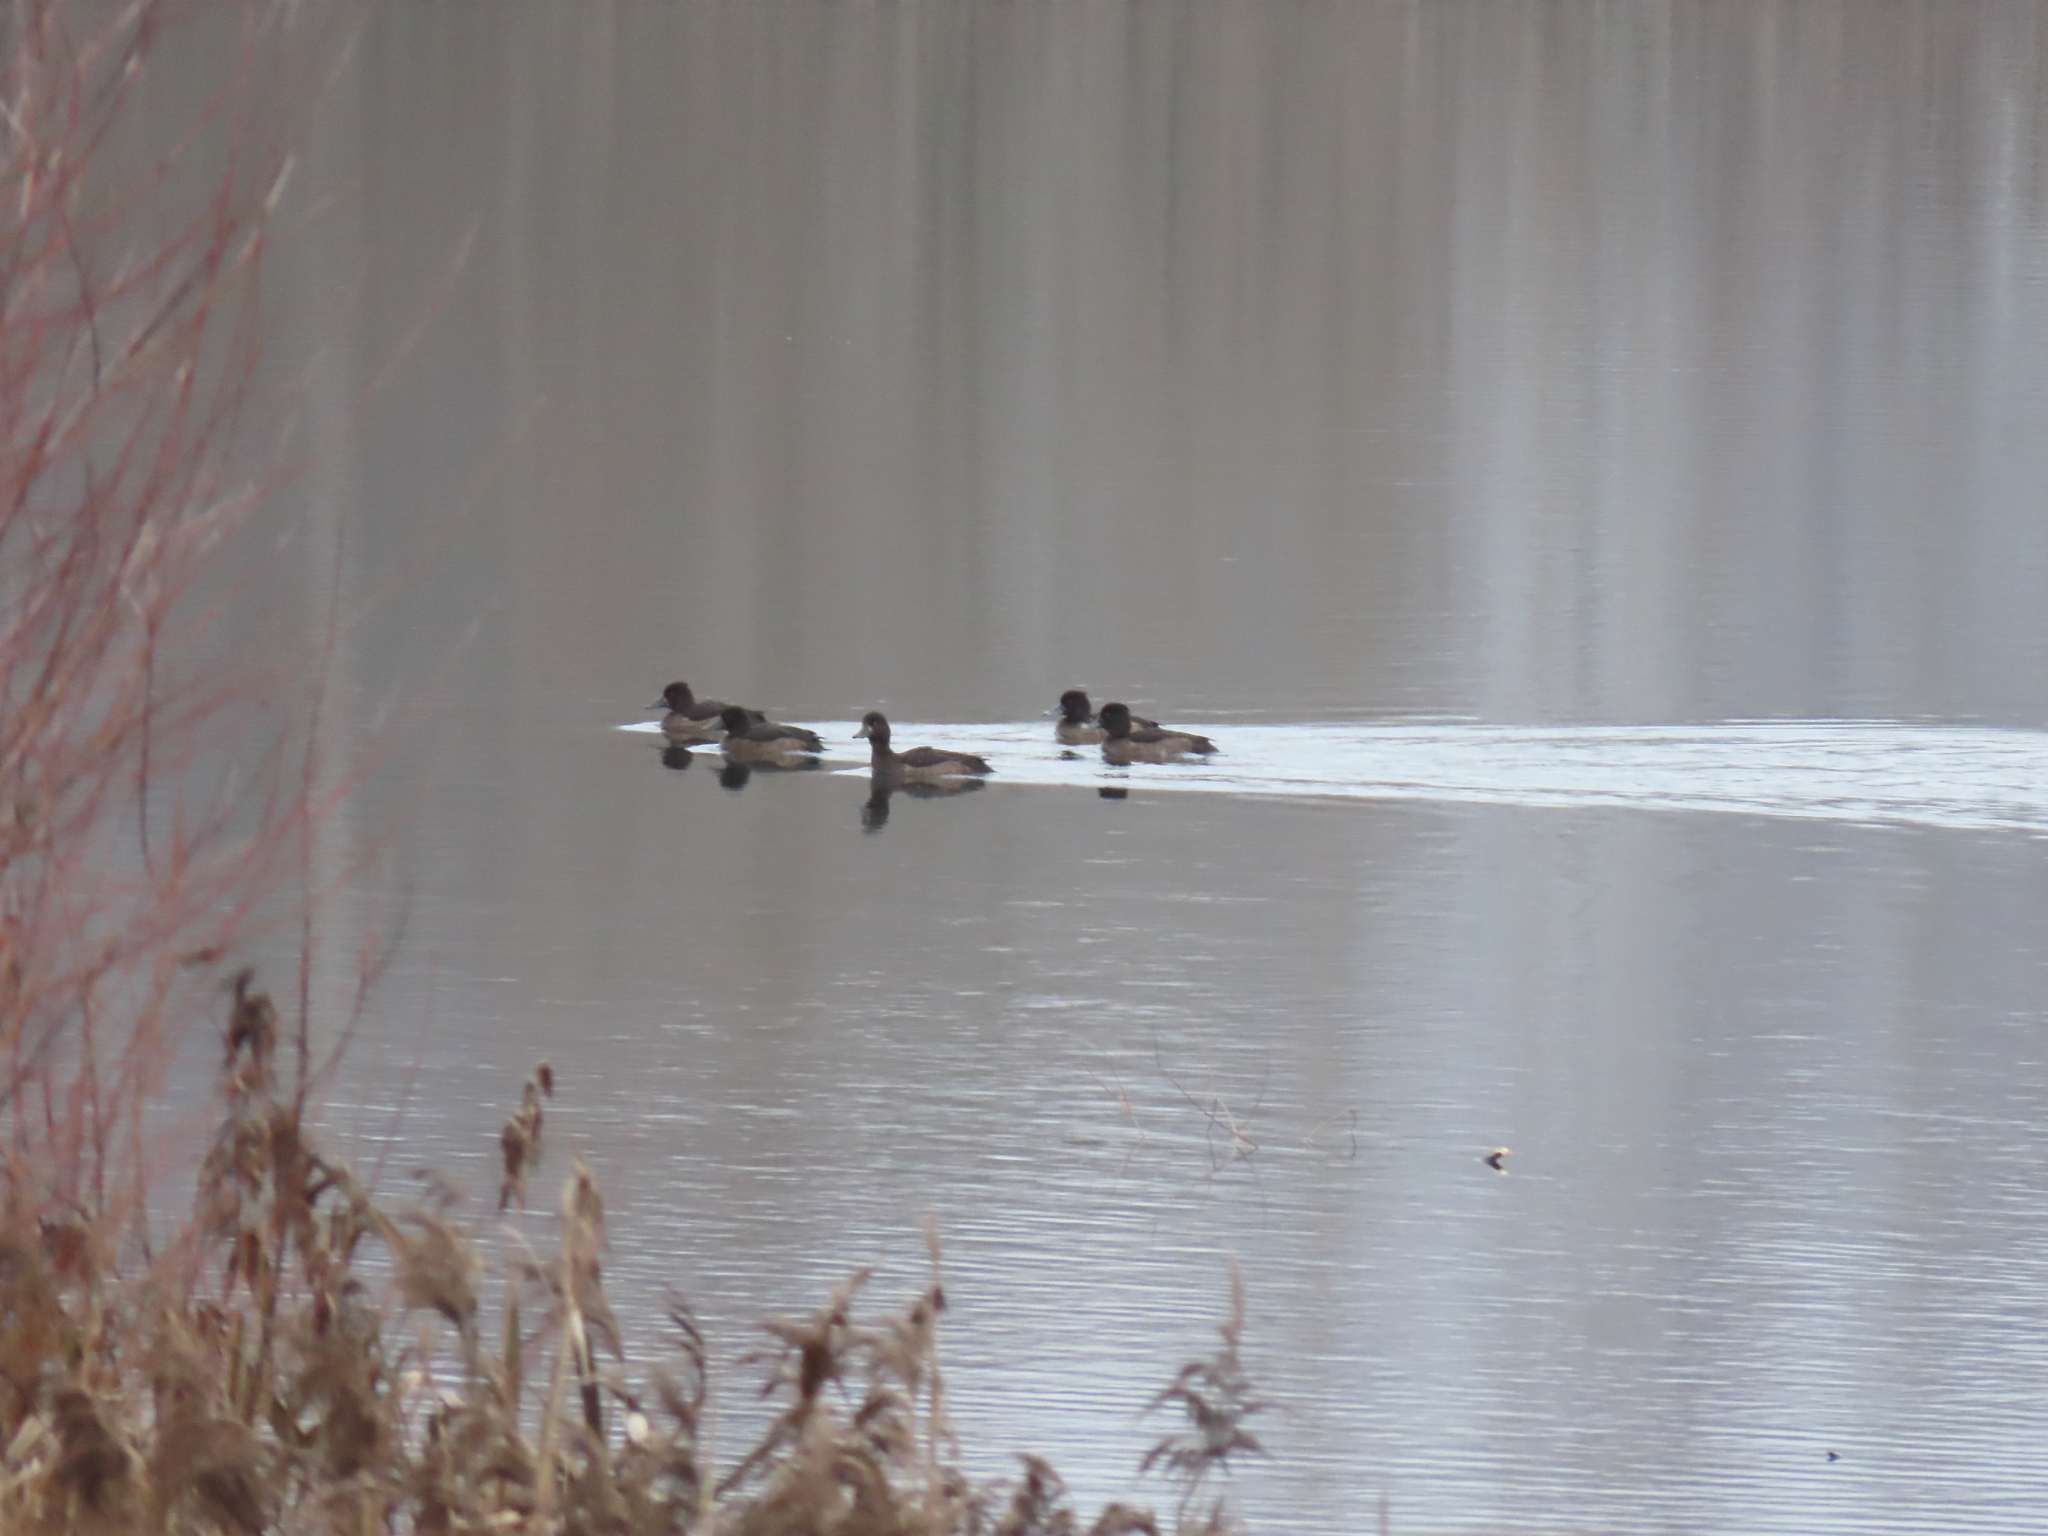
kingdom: Animalia
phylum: Chordata
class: Aves
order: Anseriformes
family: Anatidae
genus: Aythya
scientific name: Aythya fuligula
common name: Tufted duck
